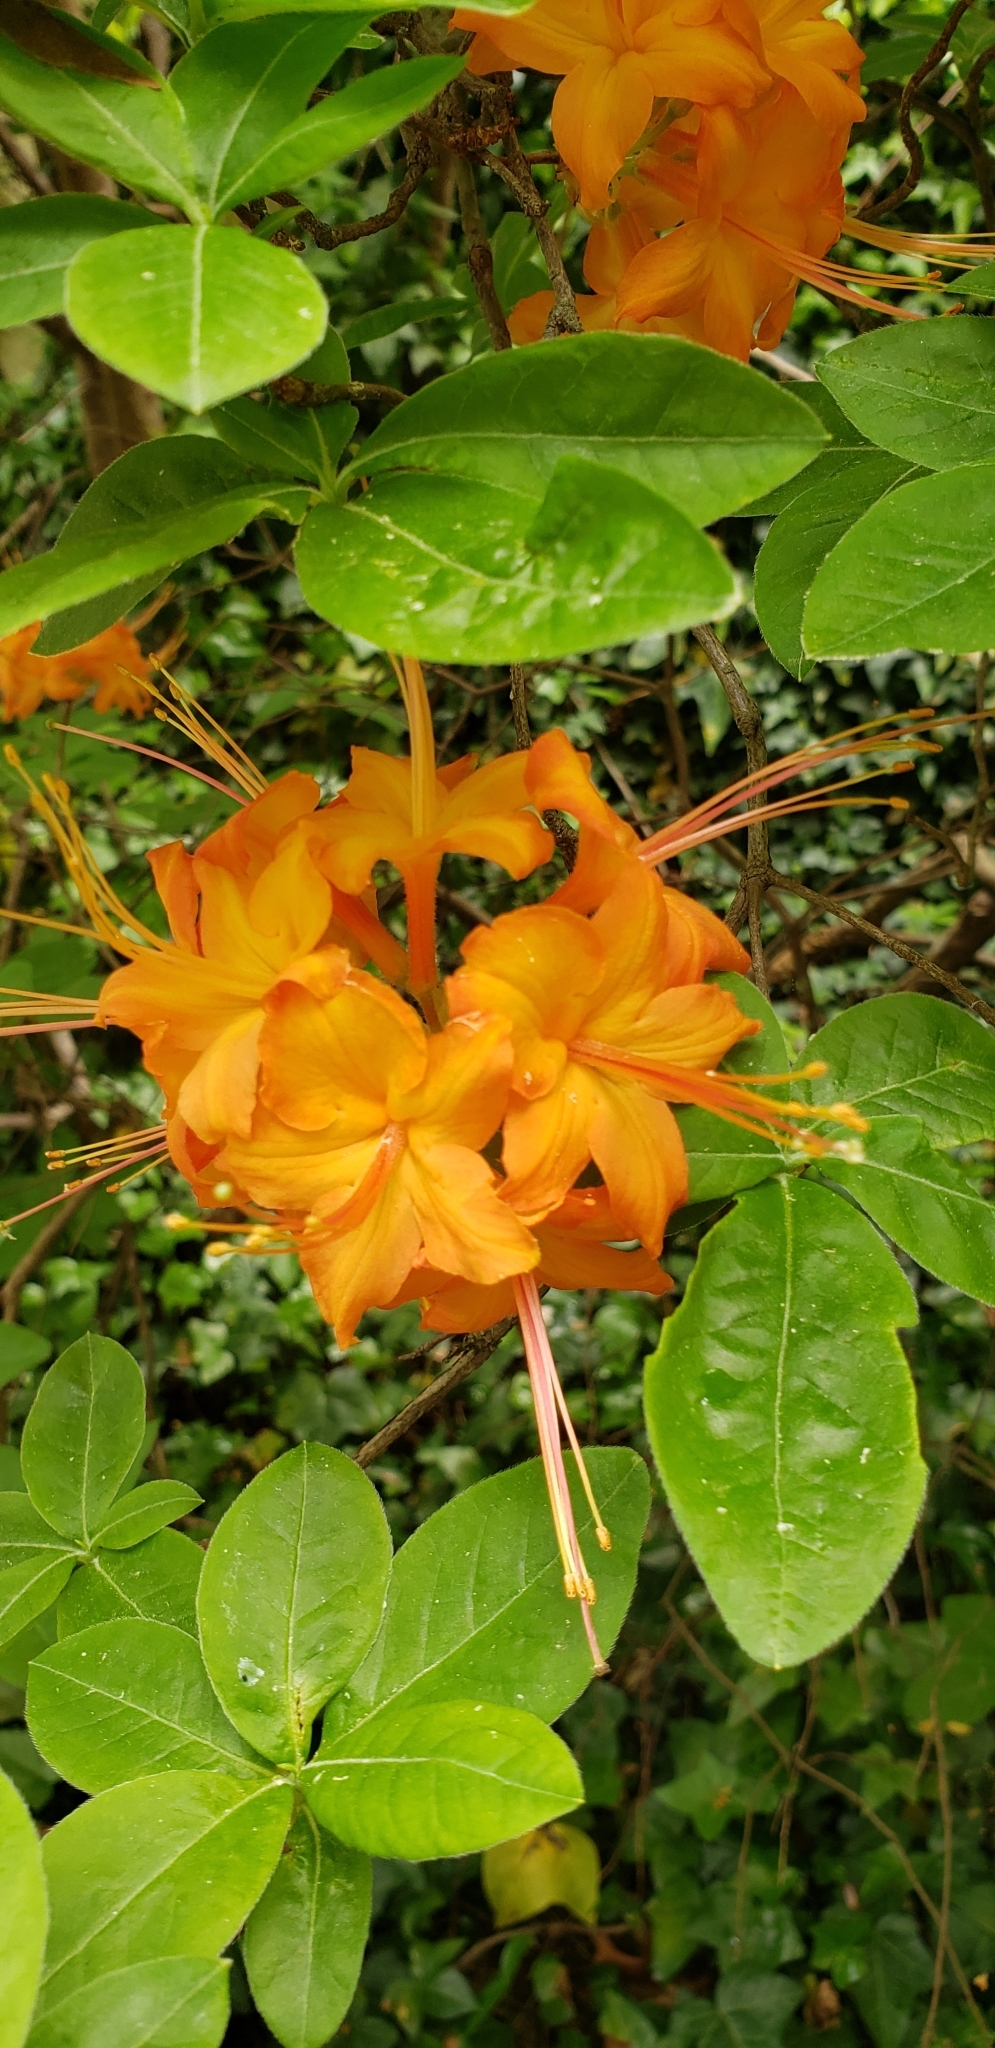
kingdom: Plantae
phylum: Tracheophyta
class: Magnoliopsida
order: Ericales
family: Ericaceae
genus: Rhododendron
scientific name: Rhododendron calendulaceum
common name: Flame azalea
